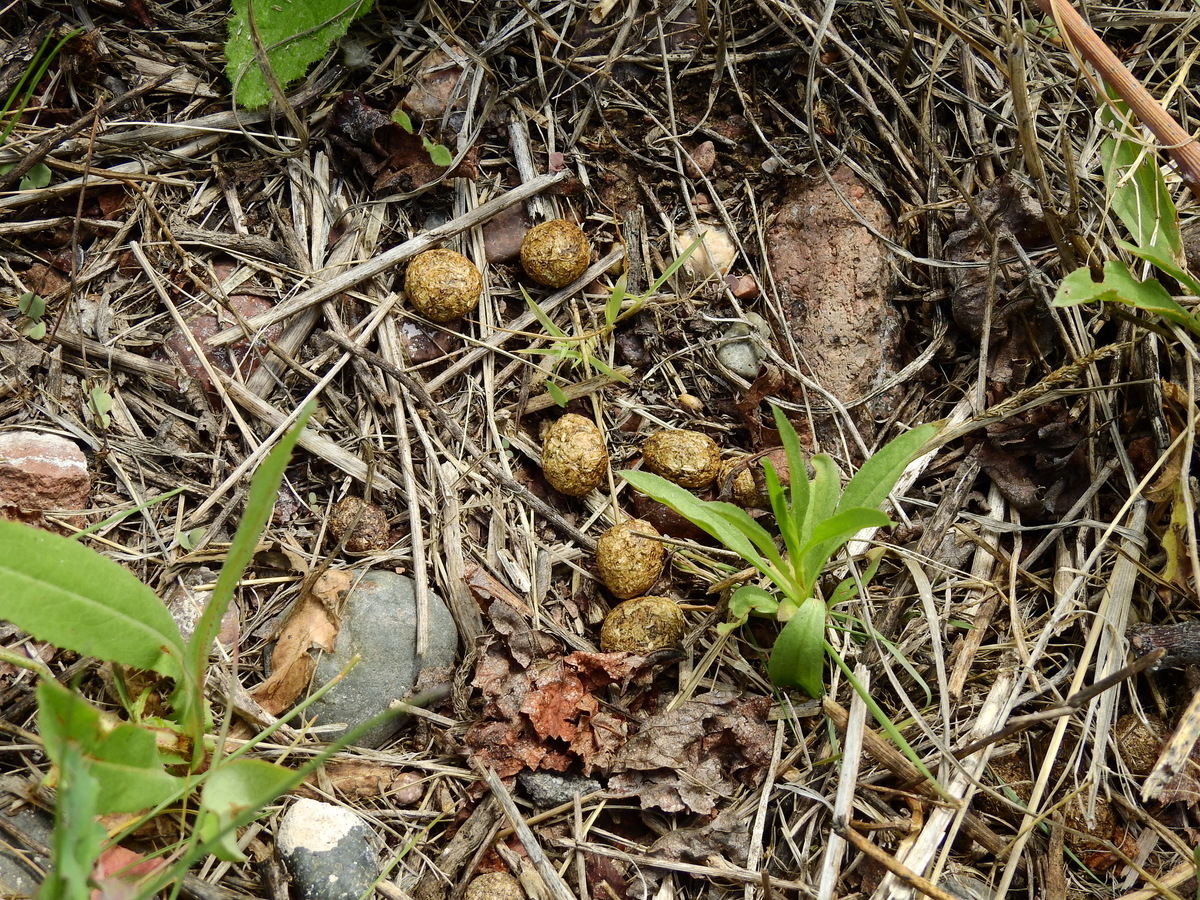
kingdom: Animalia
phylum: Chordata
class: Mammalia
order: Lagomorpha
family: Leporidae
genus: Lepus
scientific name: Lepus europaeus
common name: European hare
